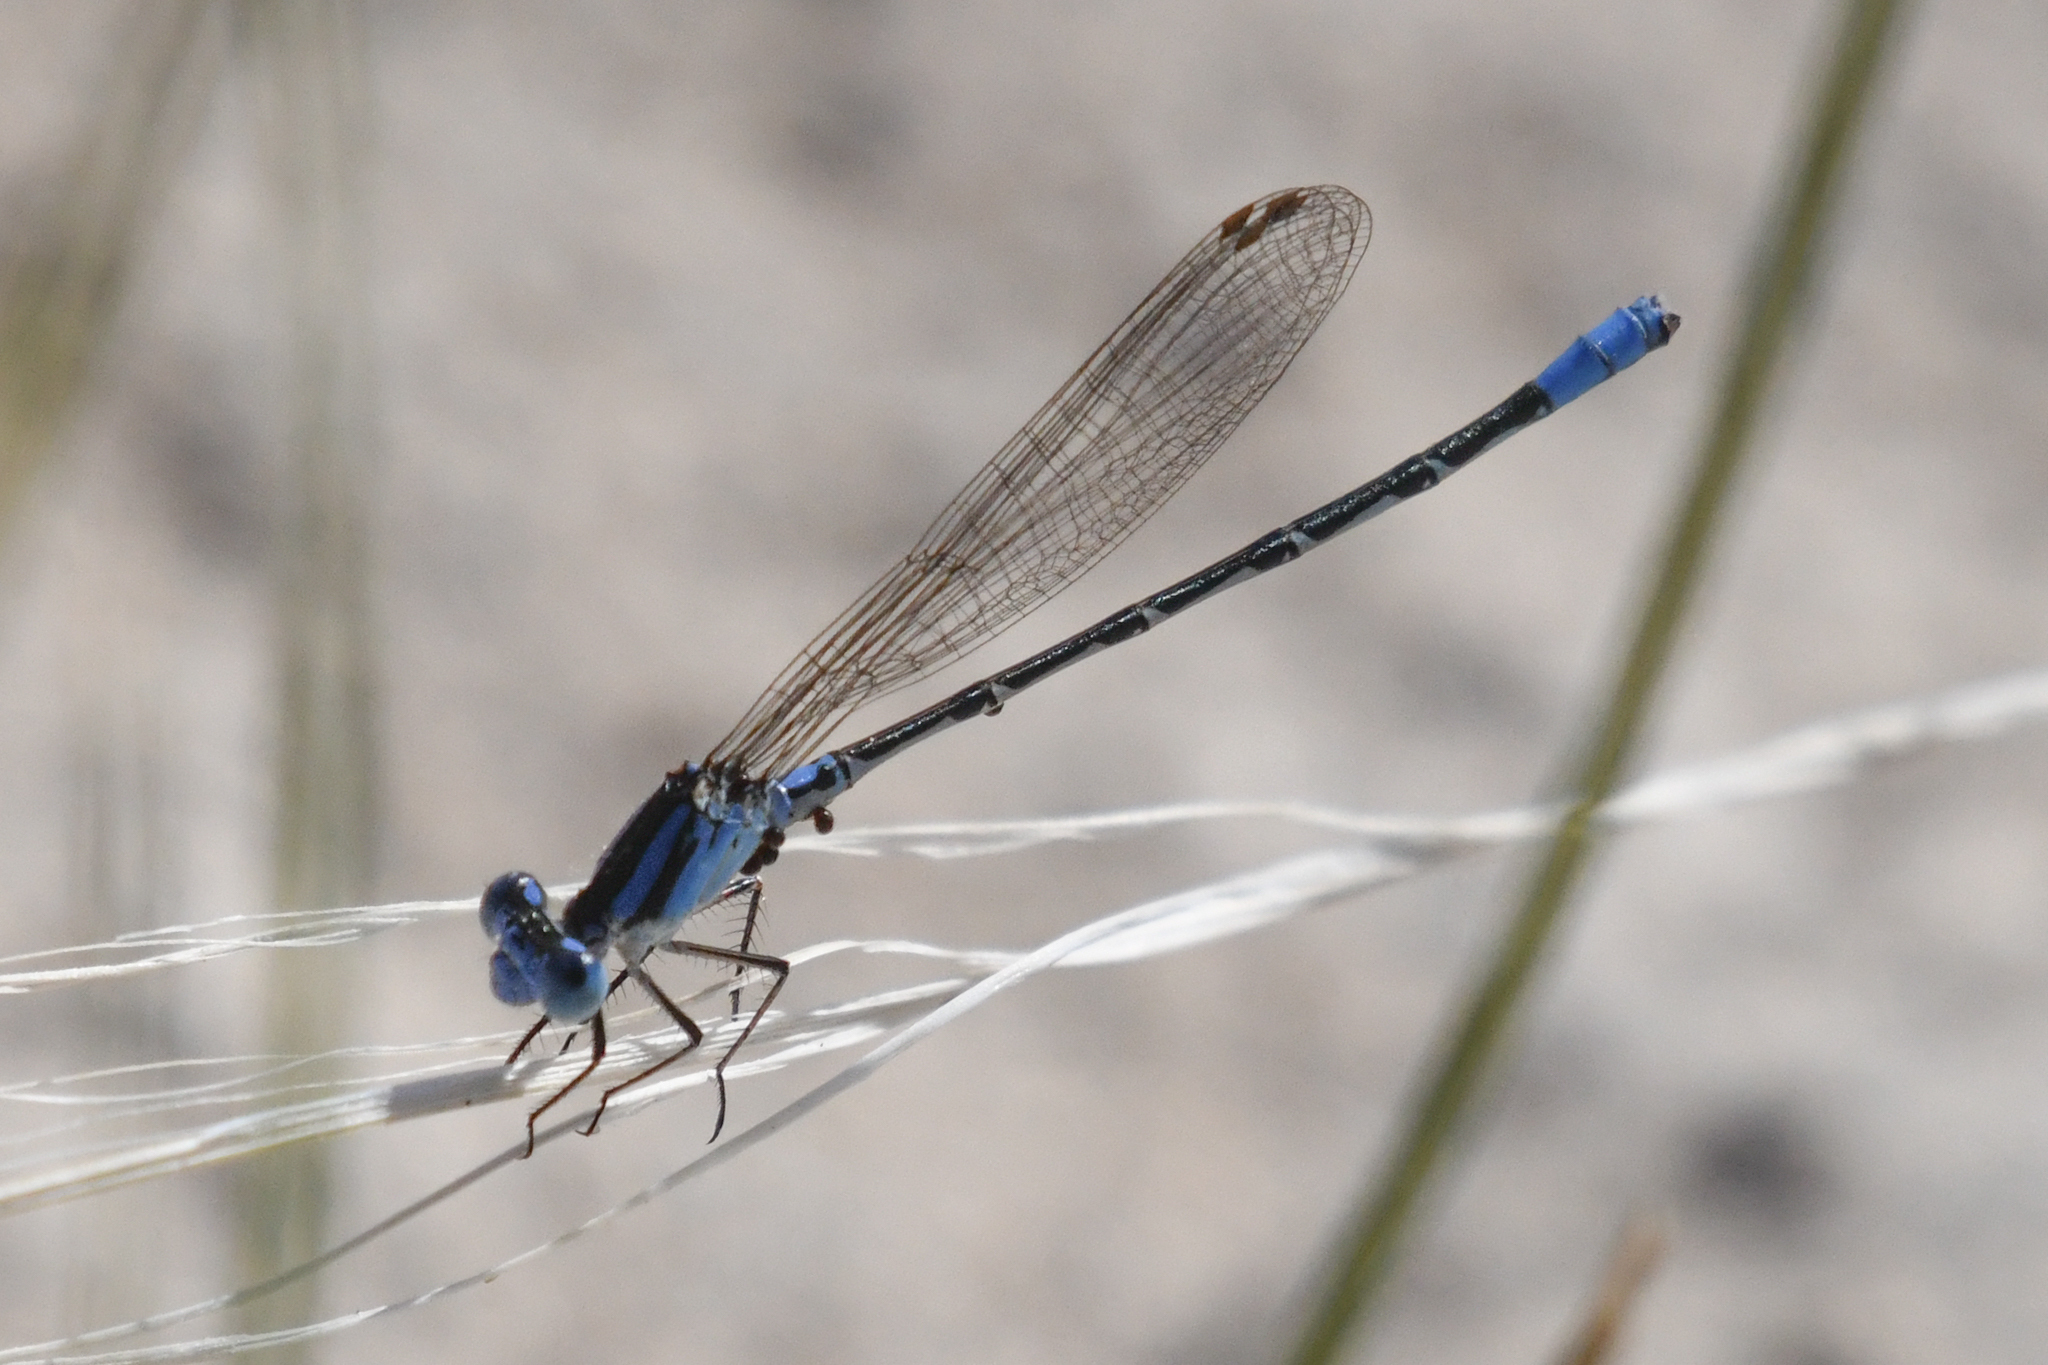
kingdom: Animalia
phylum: Arthropoda
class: Insecta
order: Odonata
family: Coenagrionidae
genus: Argia
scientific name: Argia alberta
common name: Paiute dancer
